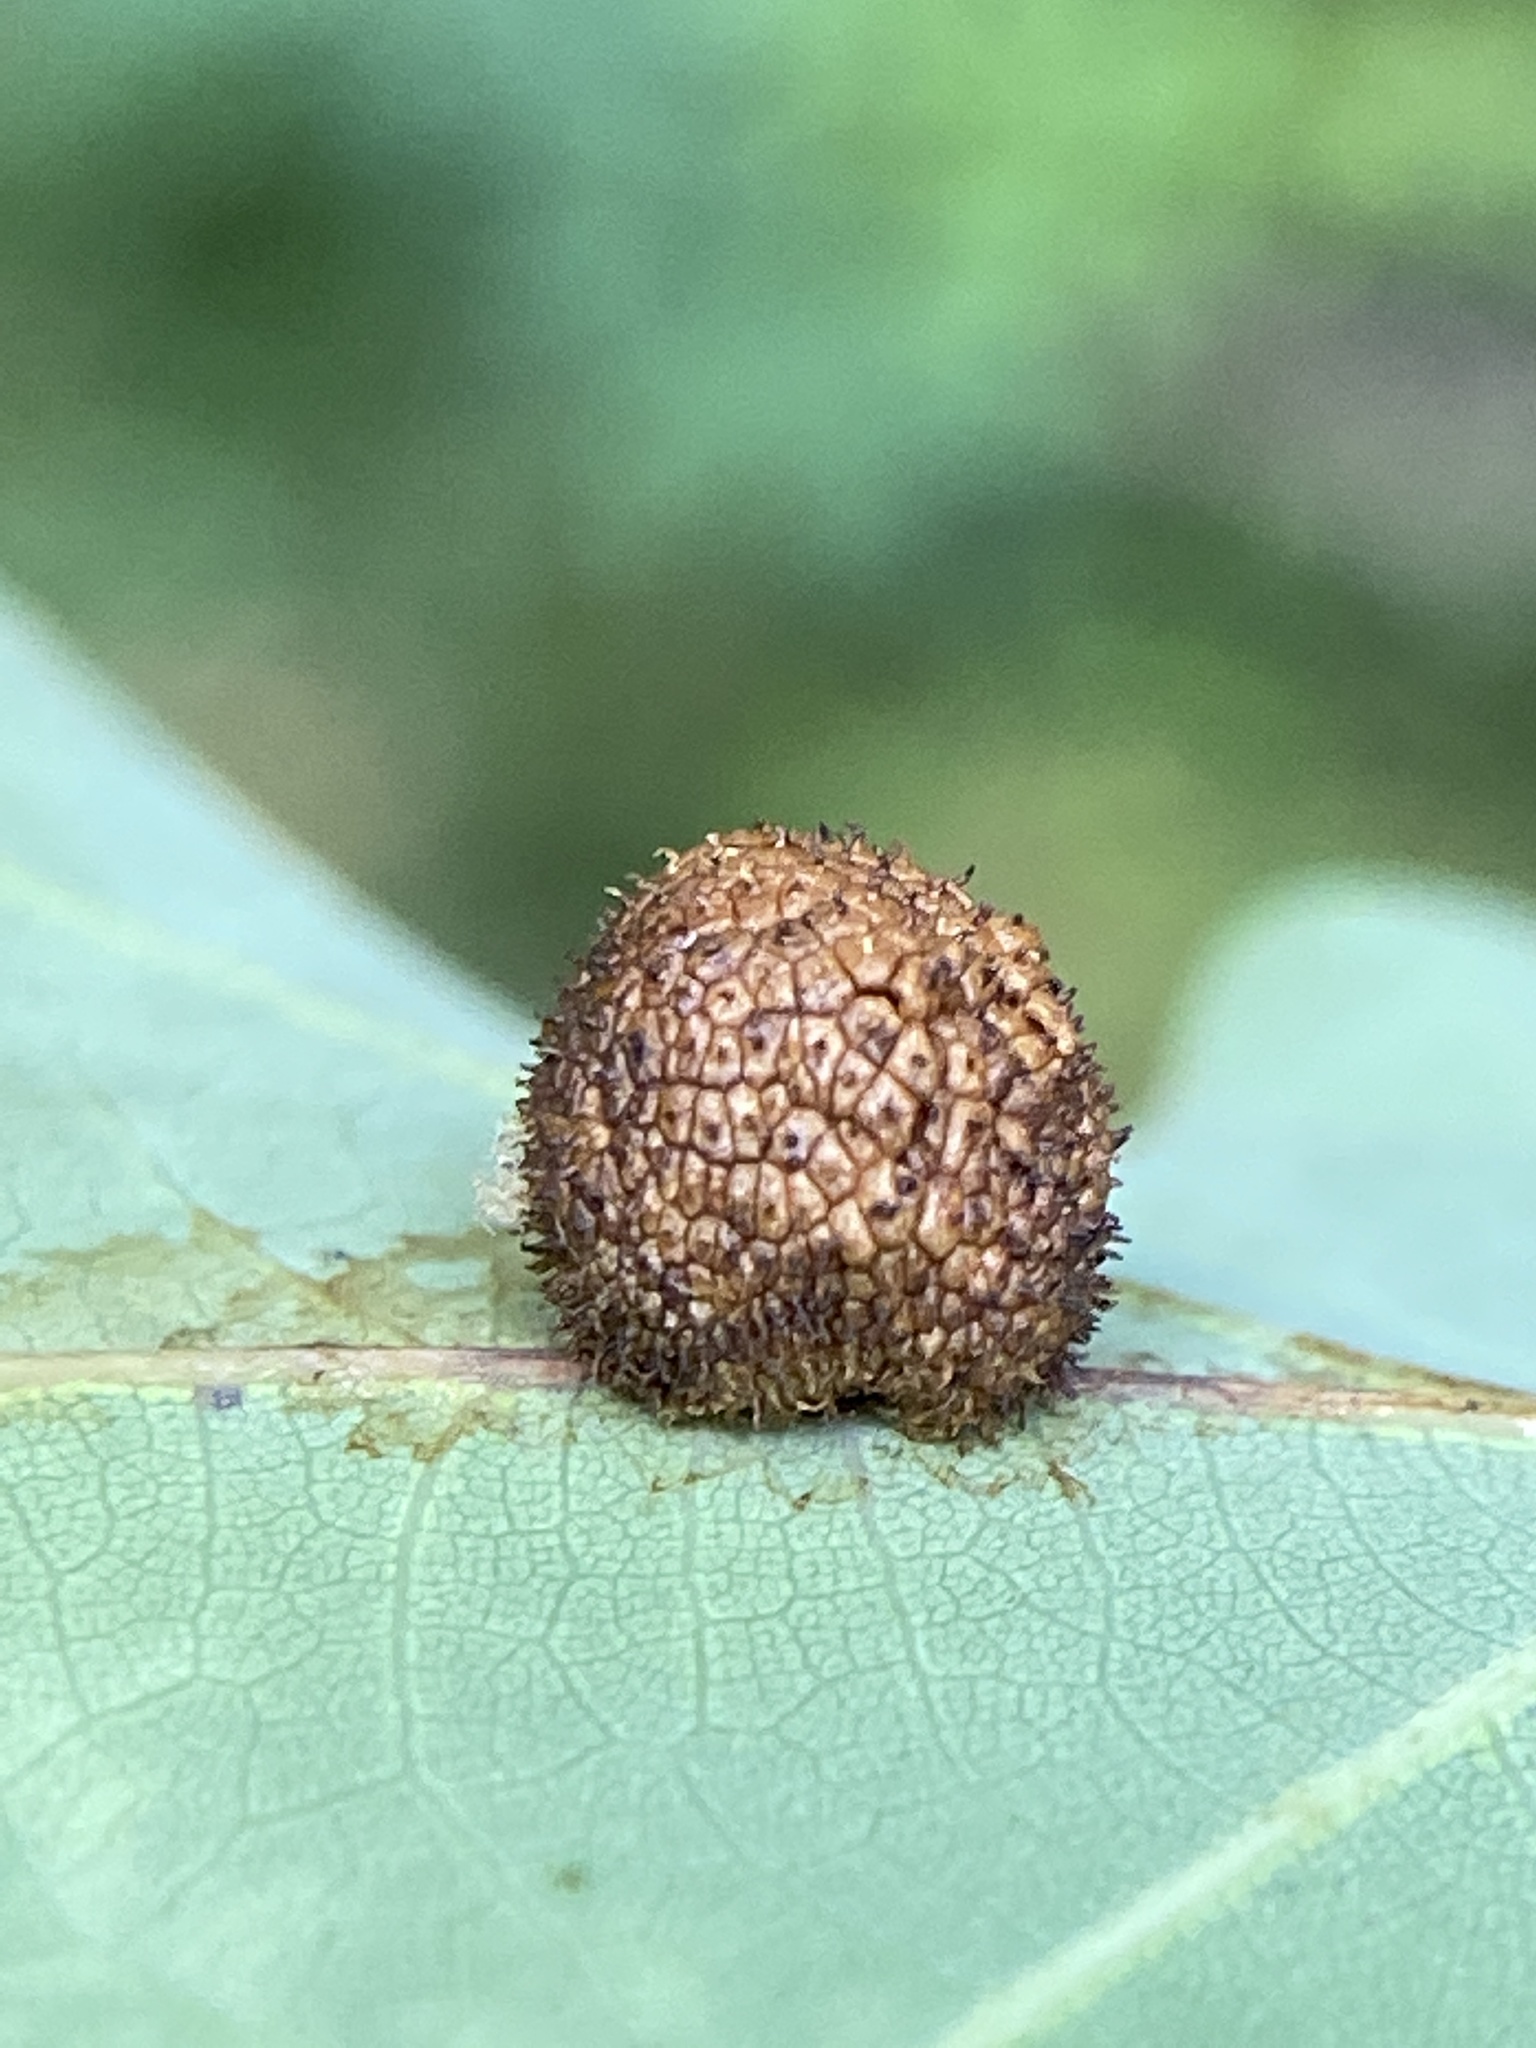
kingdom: Animalia
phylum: Arthropoda
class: Insecta
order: Hymenoptera
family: Cynipidae
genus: Acraspis
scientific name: Acraspis
